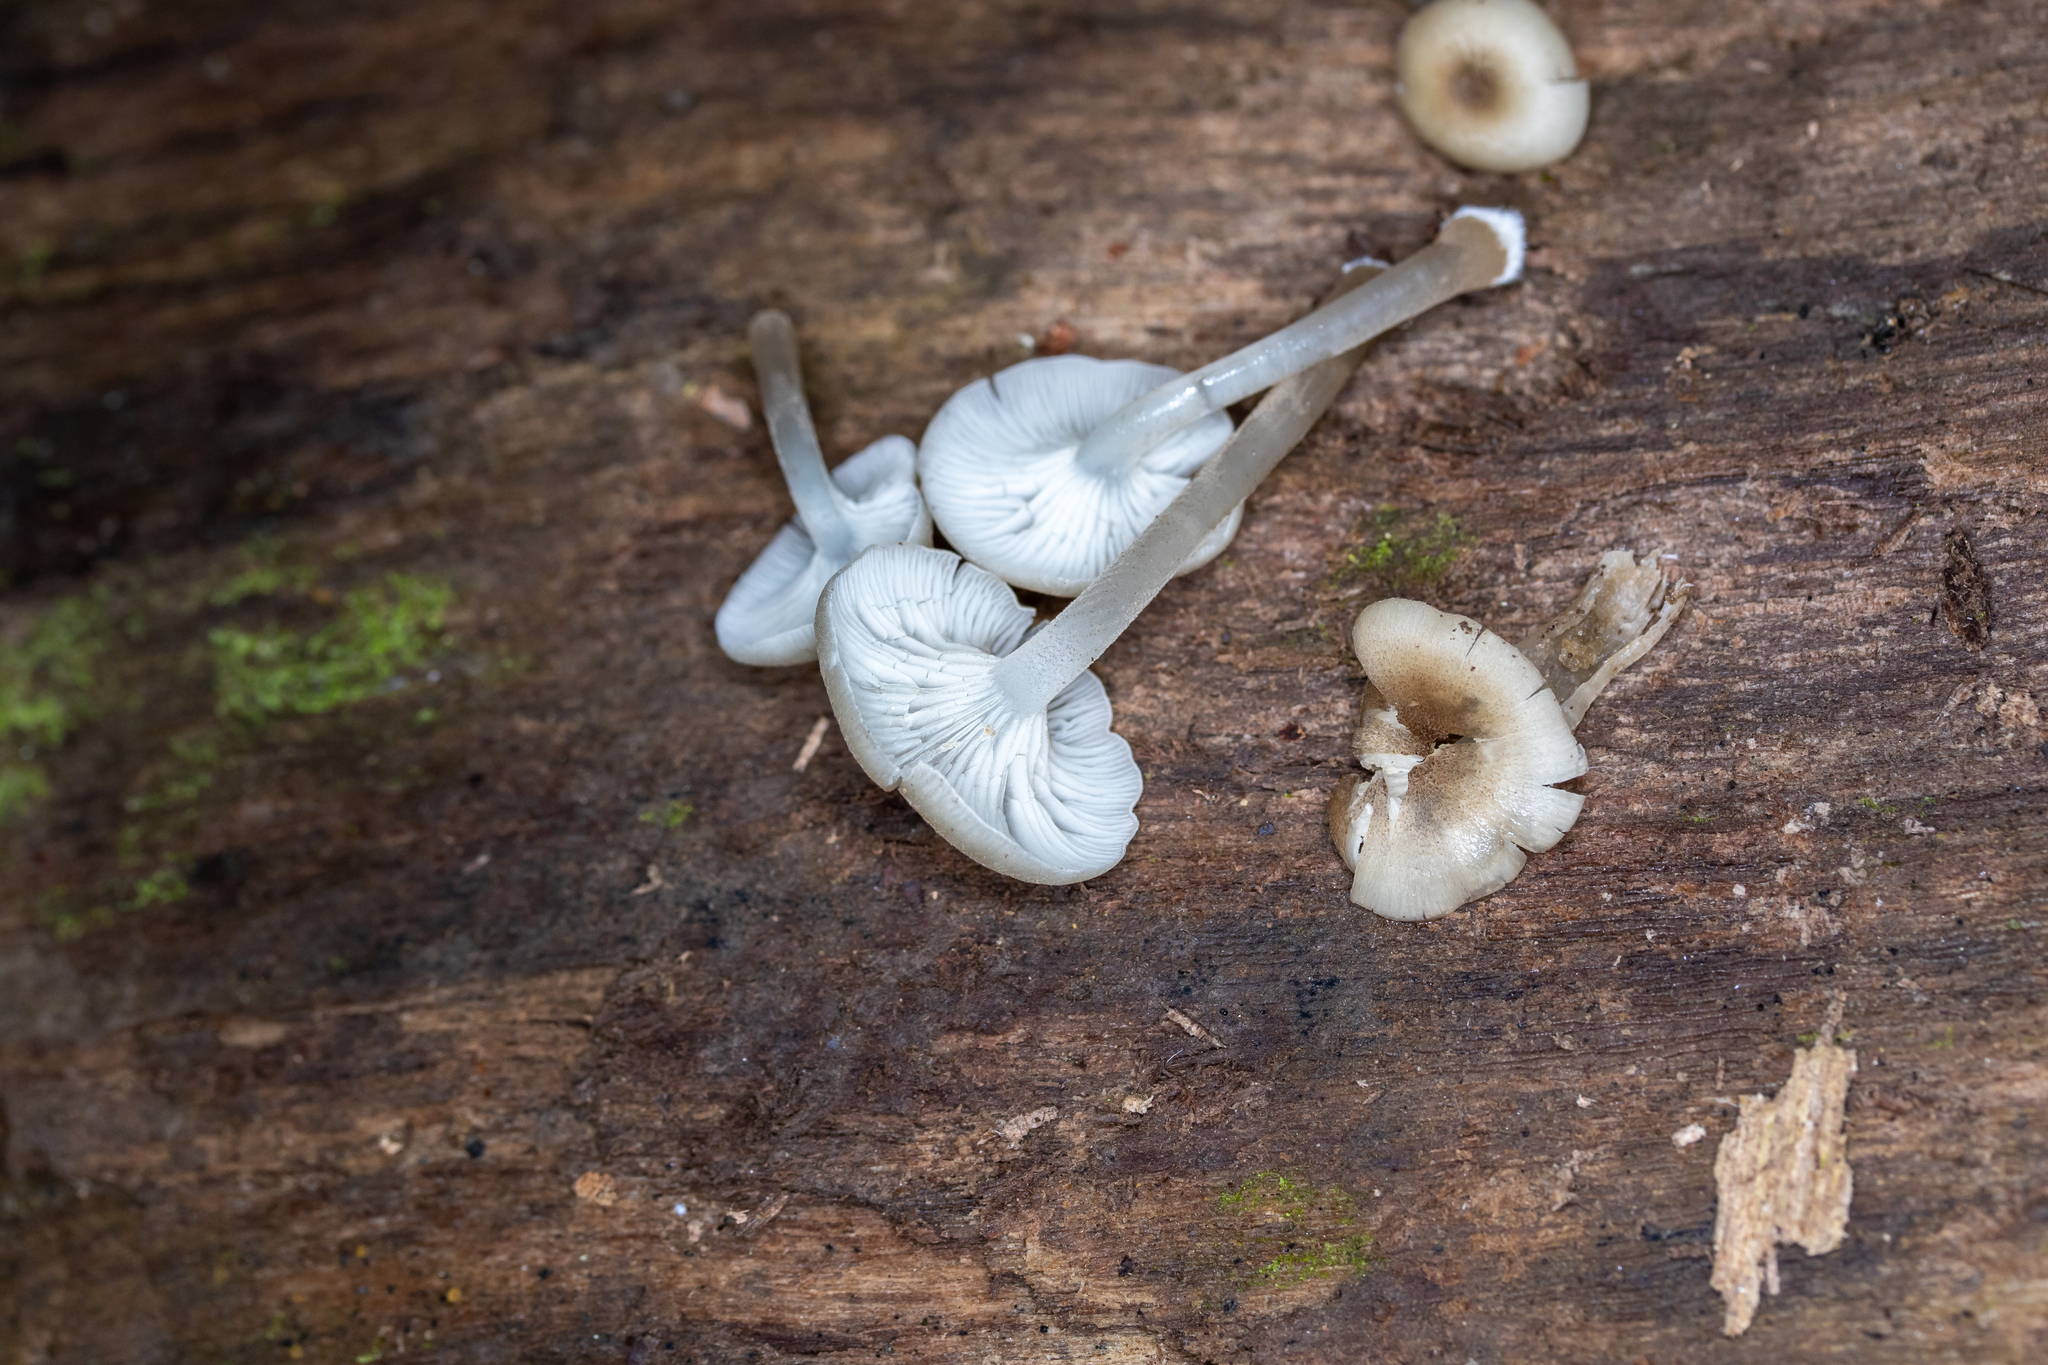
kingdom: Fungi
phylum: Basidiomycota
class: Agaricomycetes
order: Agaricales
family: Marasmiaceae
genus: Clitocybula
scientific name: Clitocybula oculus
